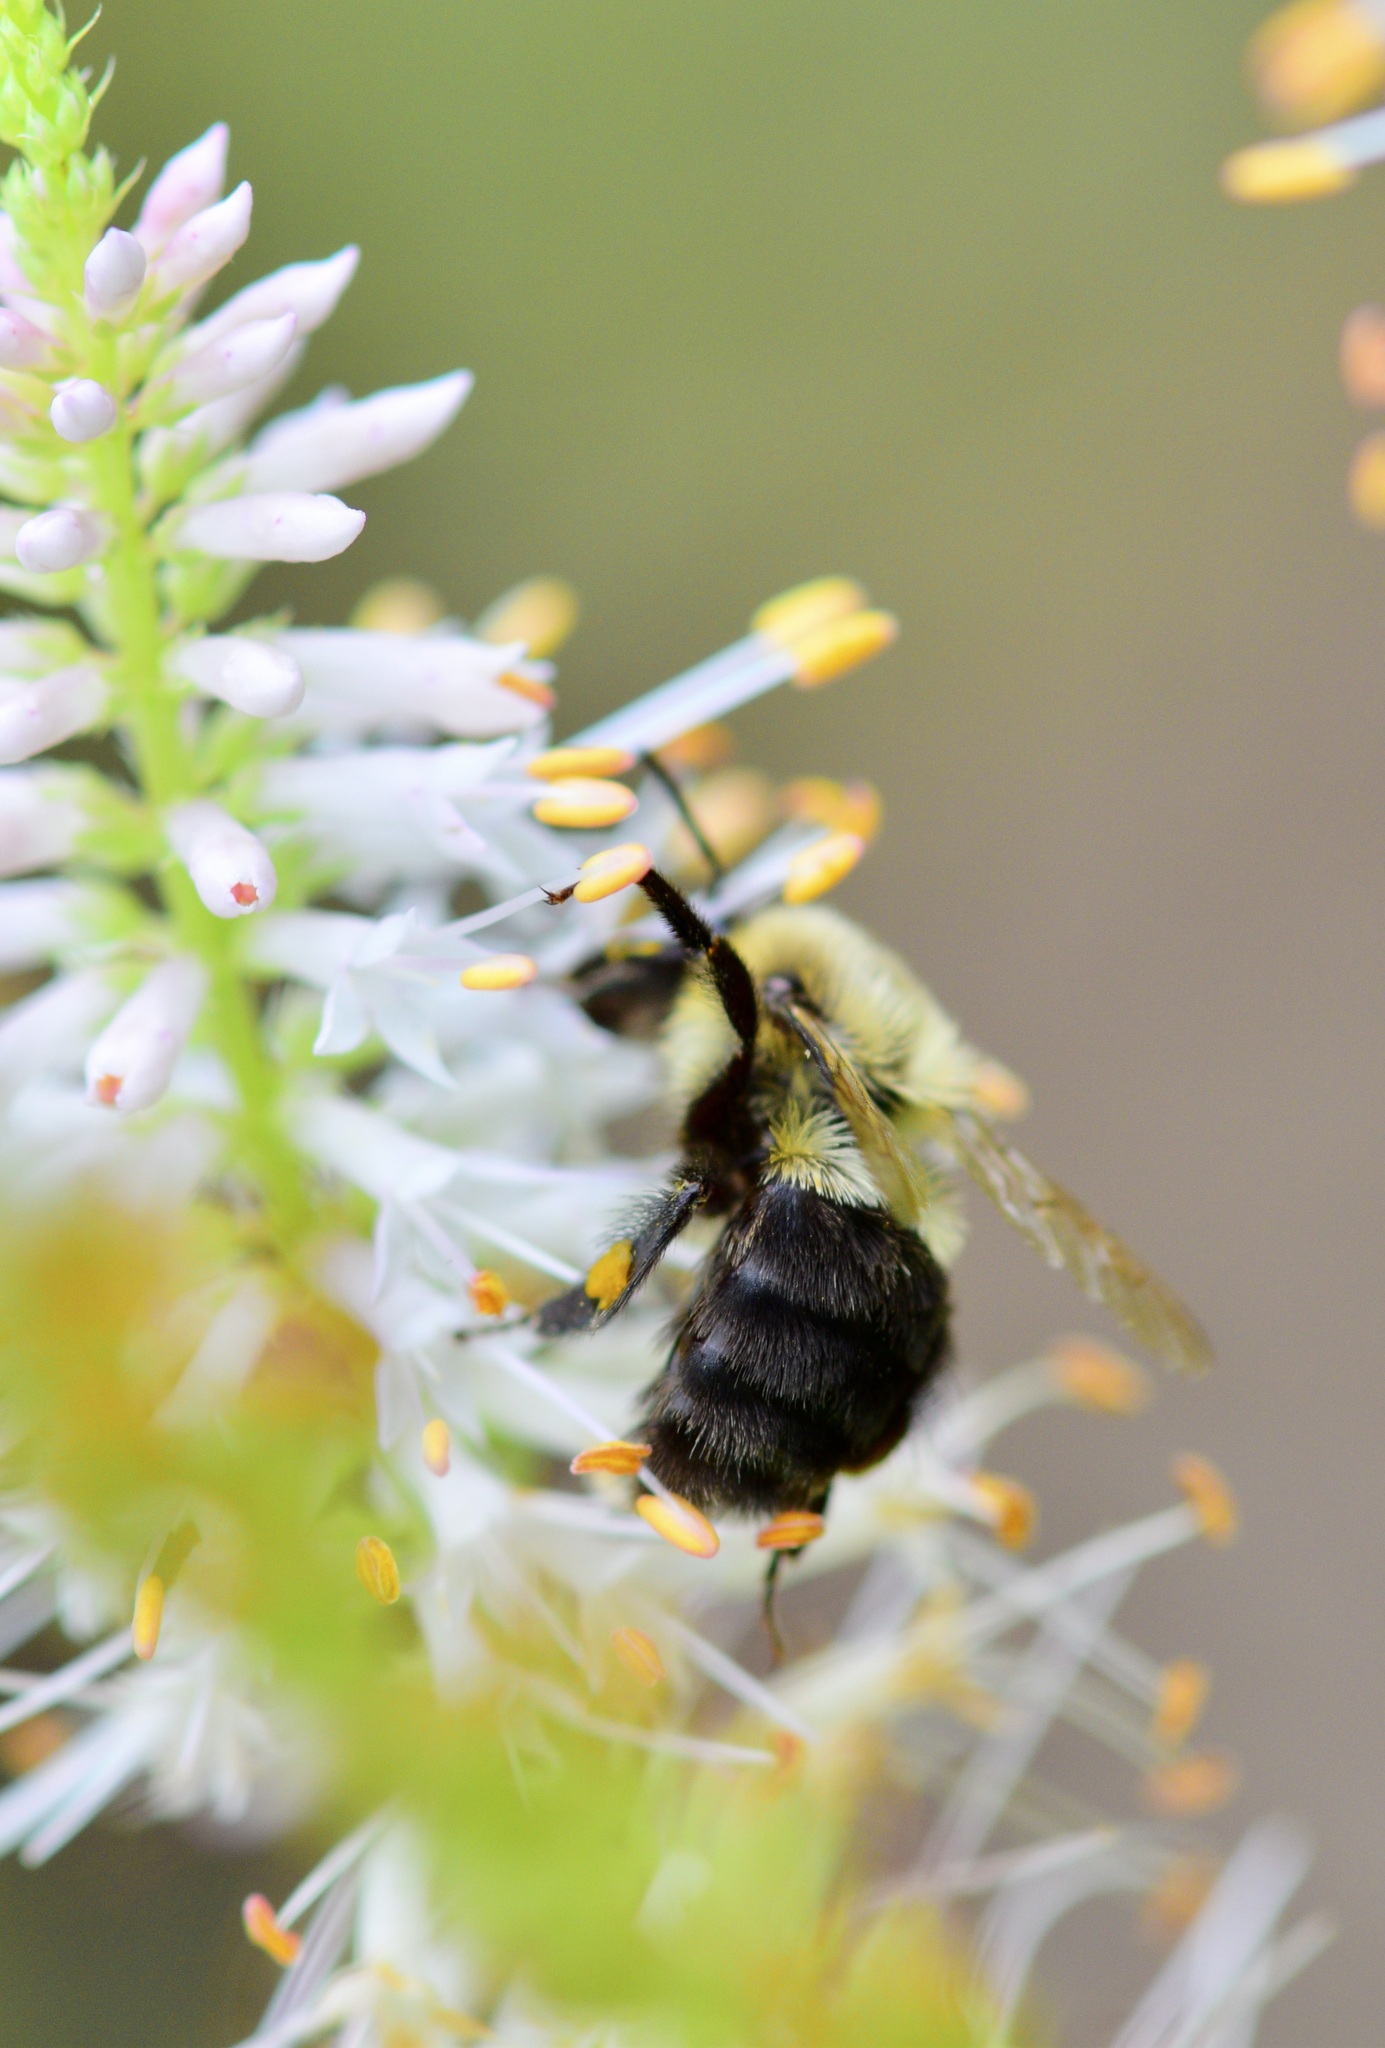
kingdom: Animalia
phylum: Arthropoda
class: Insecta
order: Hymenoptera
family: Apidae
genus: Bombus
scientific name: Bombus impatiens
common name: Common eastern bumble bee
